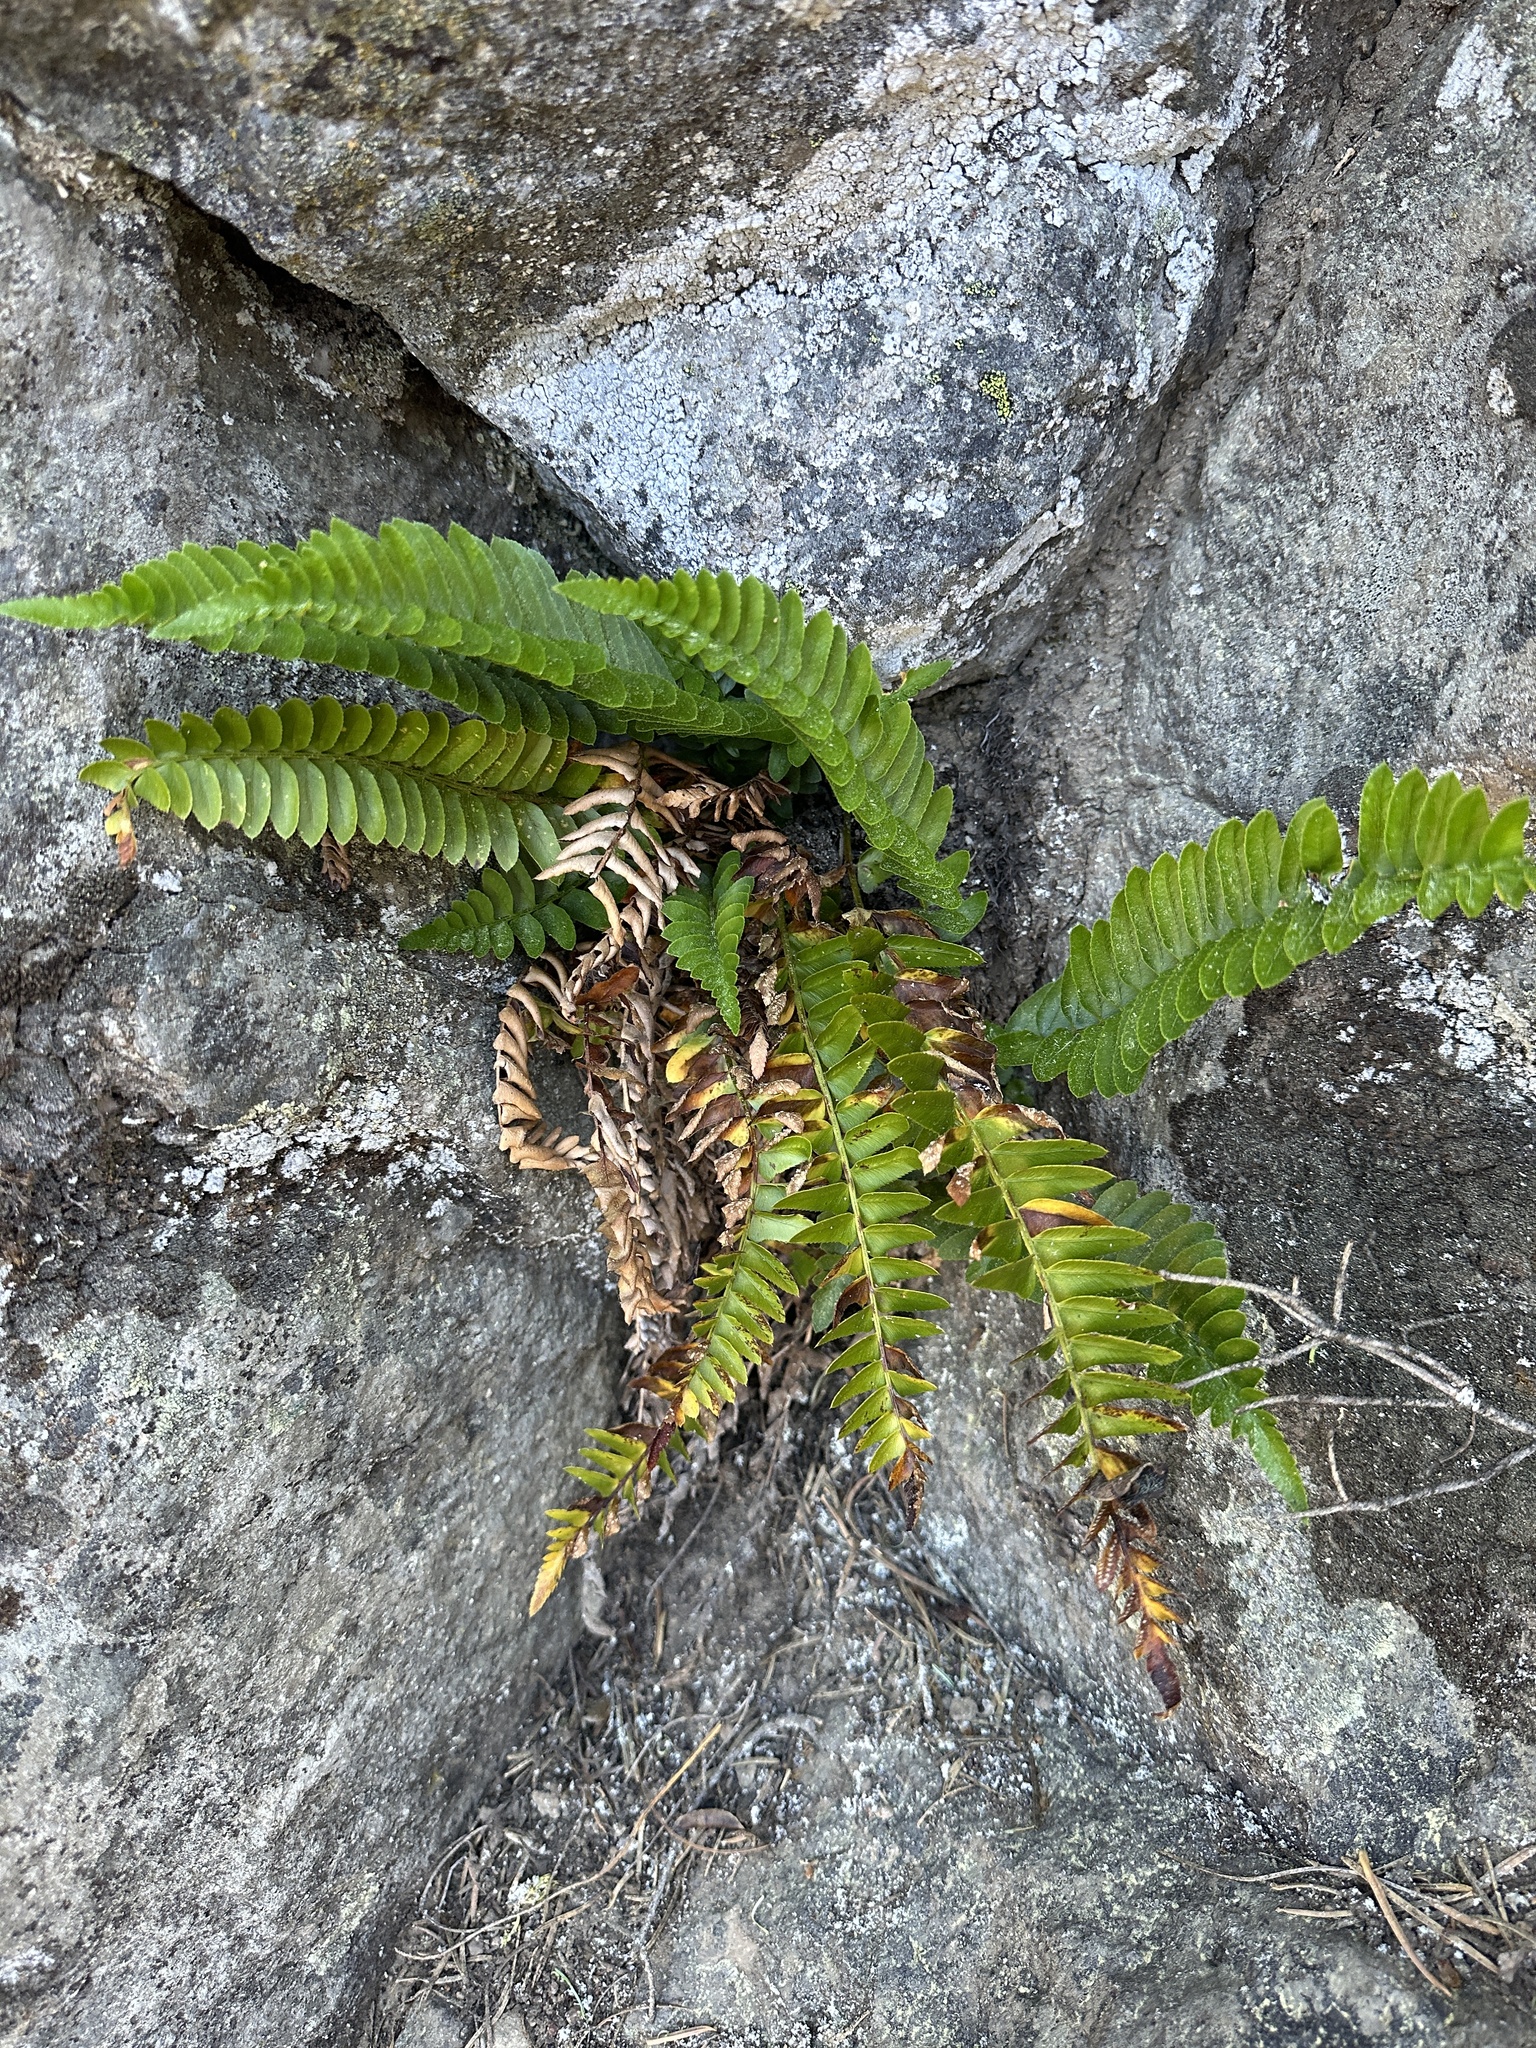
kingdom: Plantae
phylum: Tracheophyta
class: Polypodiopsida
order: Polypodiales
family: Dryopteridaceae
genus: Polystichum
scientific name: Polystichum imbricans
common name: Dwarf western sword fern
